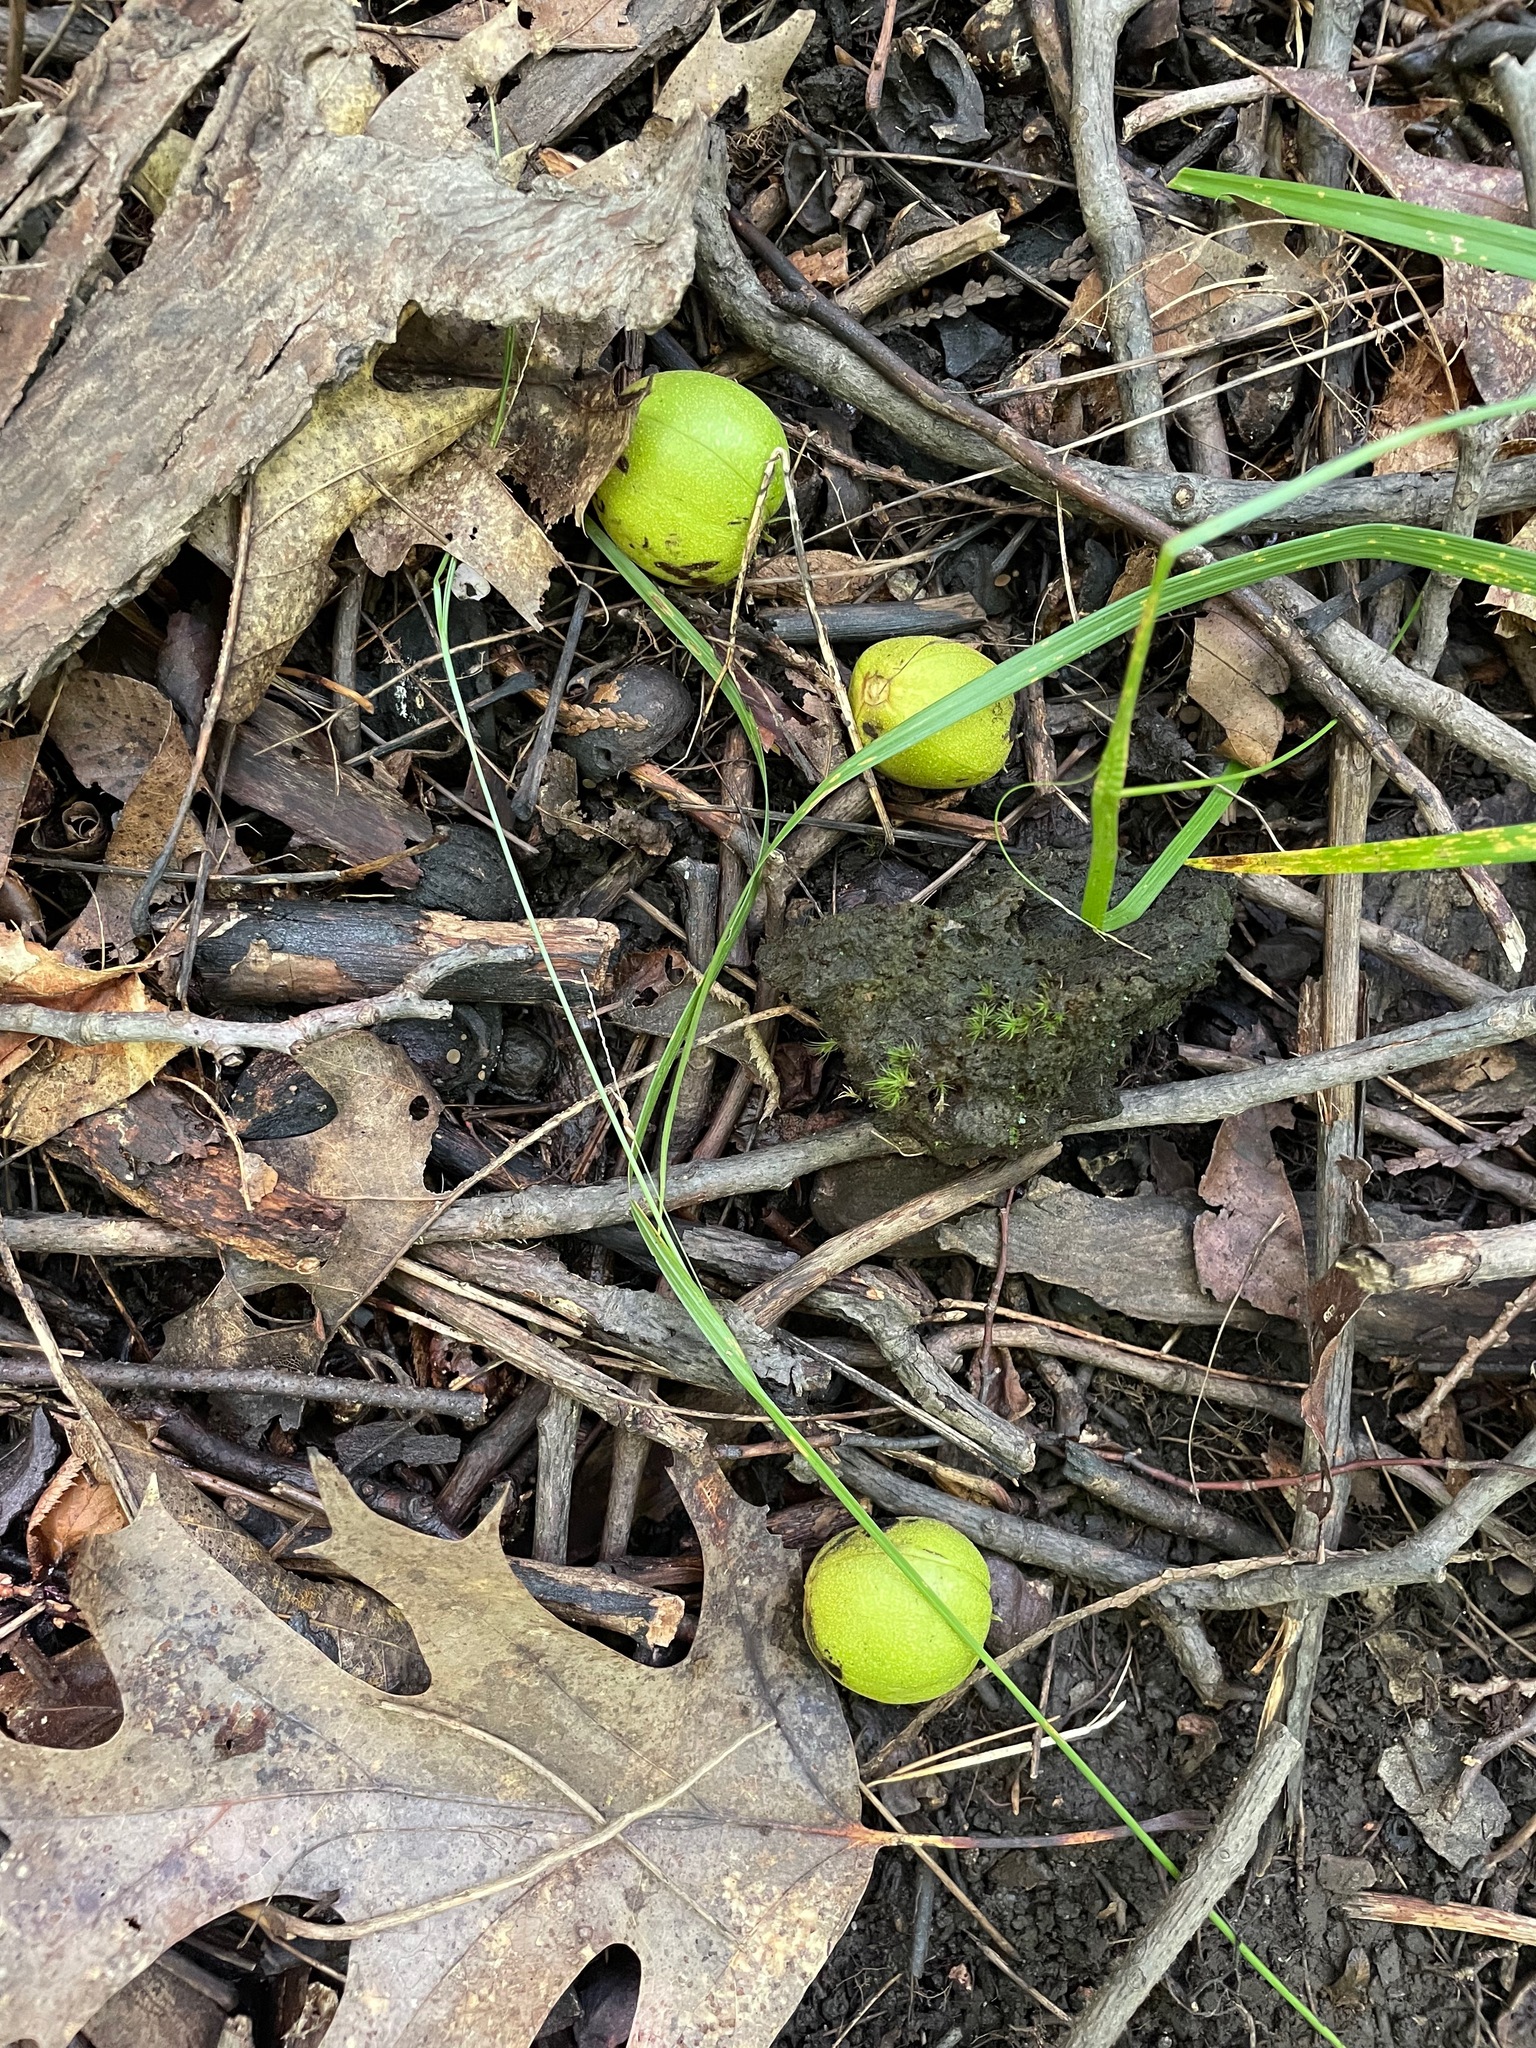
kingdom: Plantae
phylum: Tracheophyta
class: Magnoliopsida
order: Fagales
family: Juglandaceae
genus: Carya
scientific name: Carya ovata
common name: Shagbark hickory
